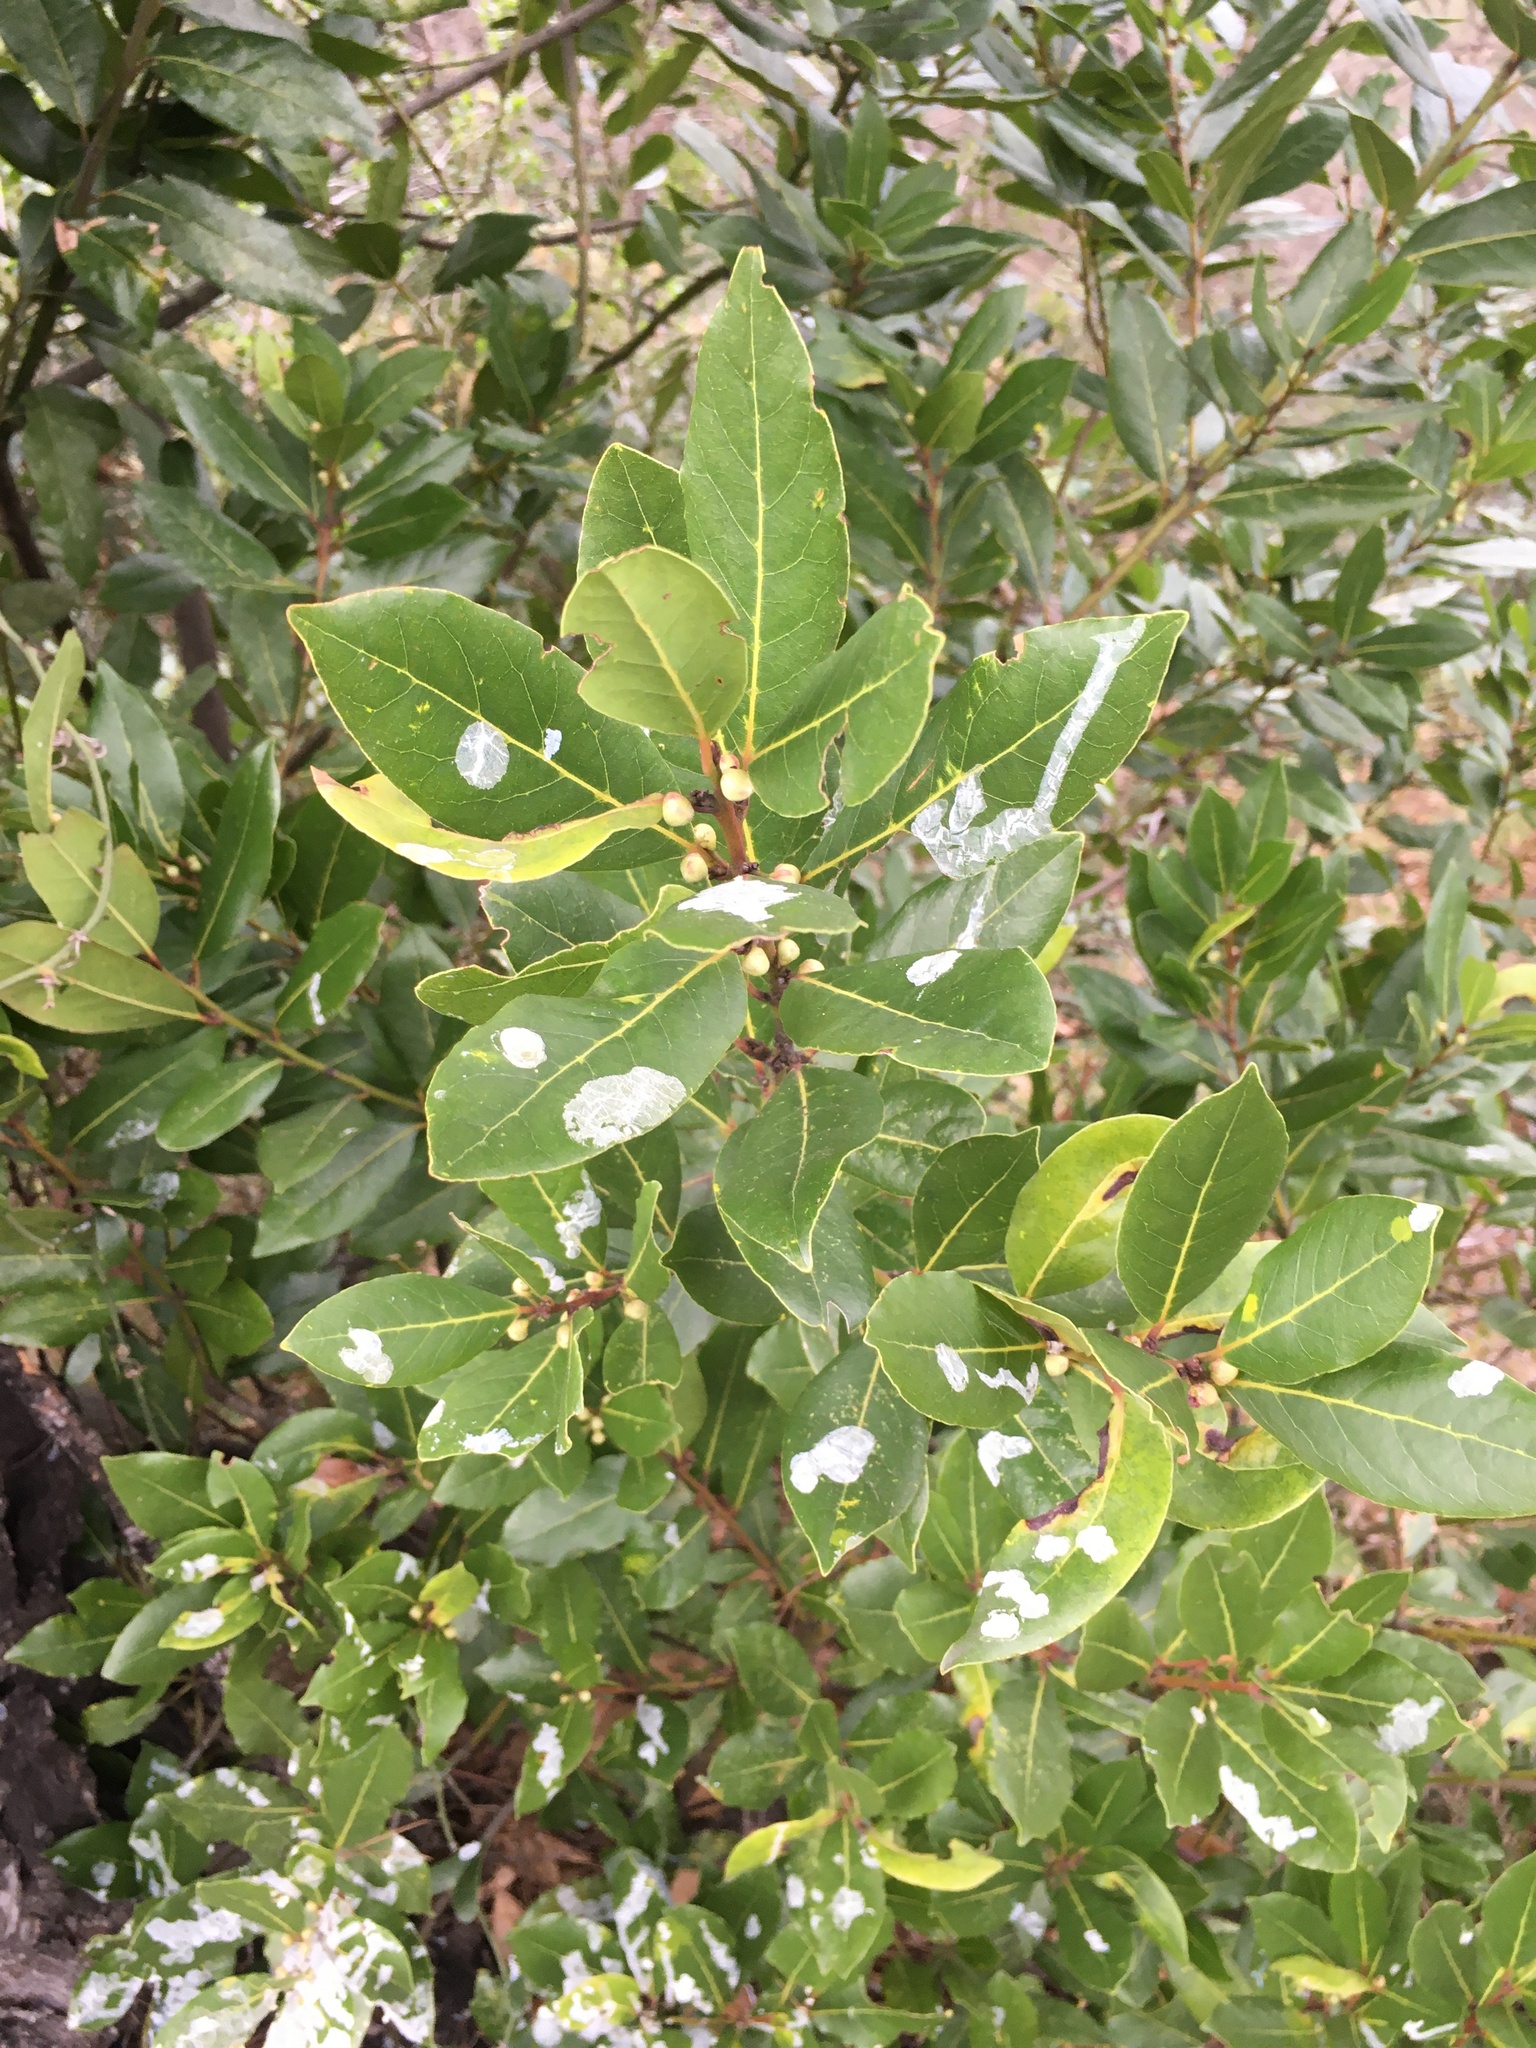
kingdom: Plantae
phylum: Tracheophyta
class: Magnoliopsida
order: Laurales
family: Lauraceae
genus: Laurus
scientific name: Laurus nobilis
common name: Bay
